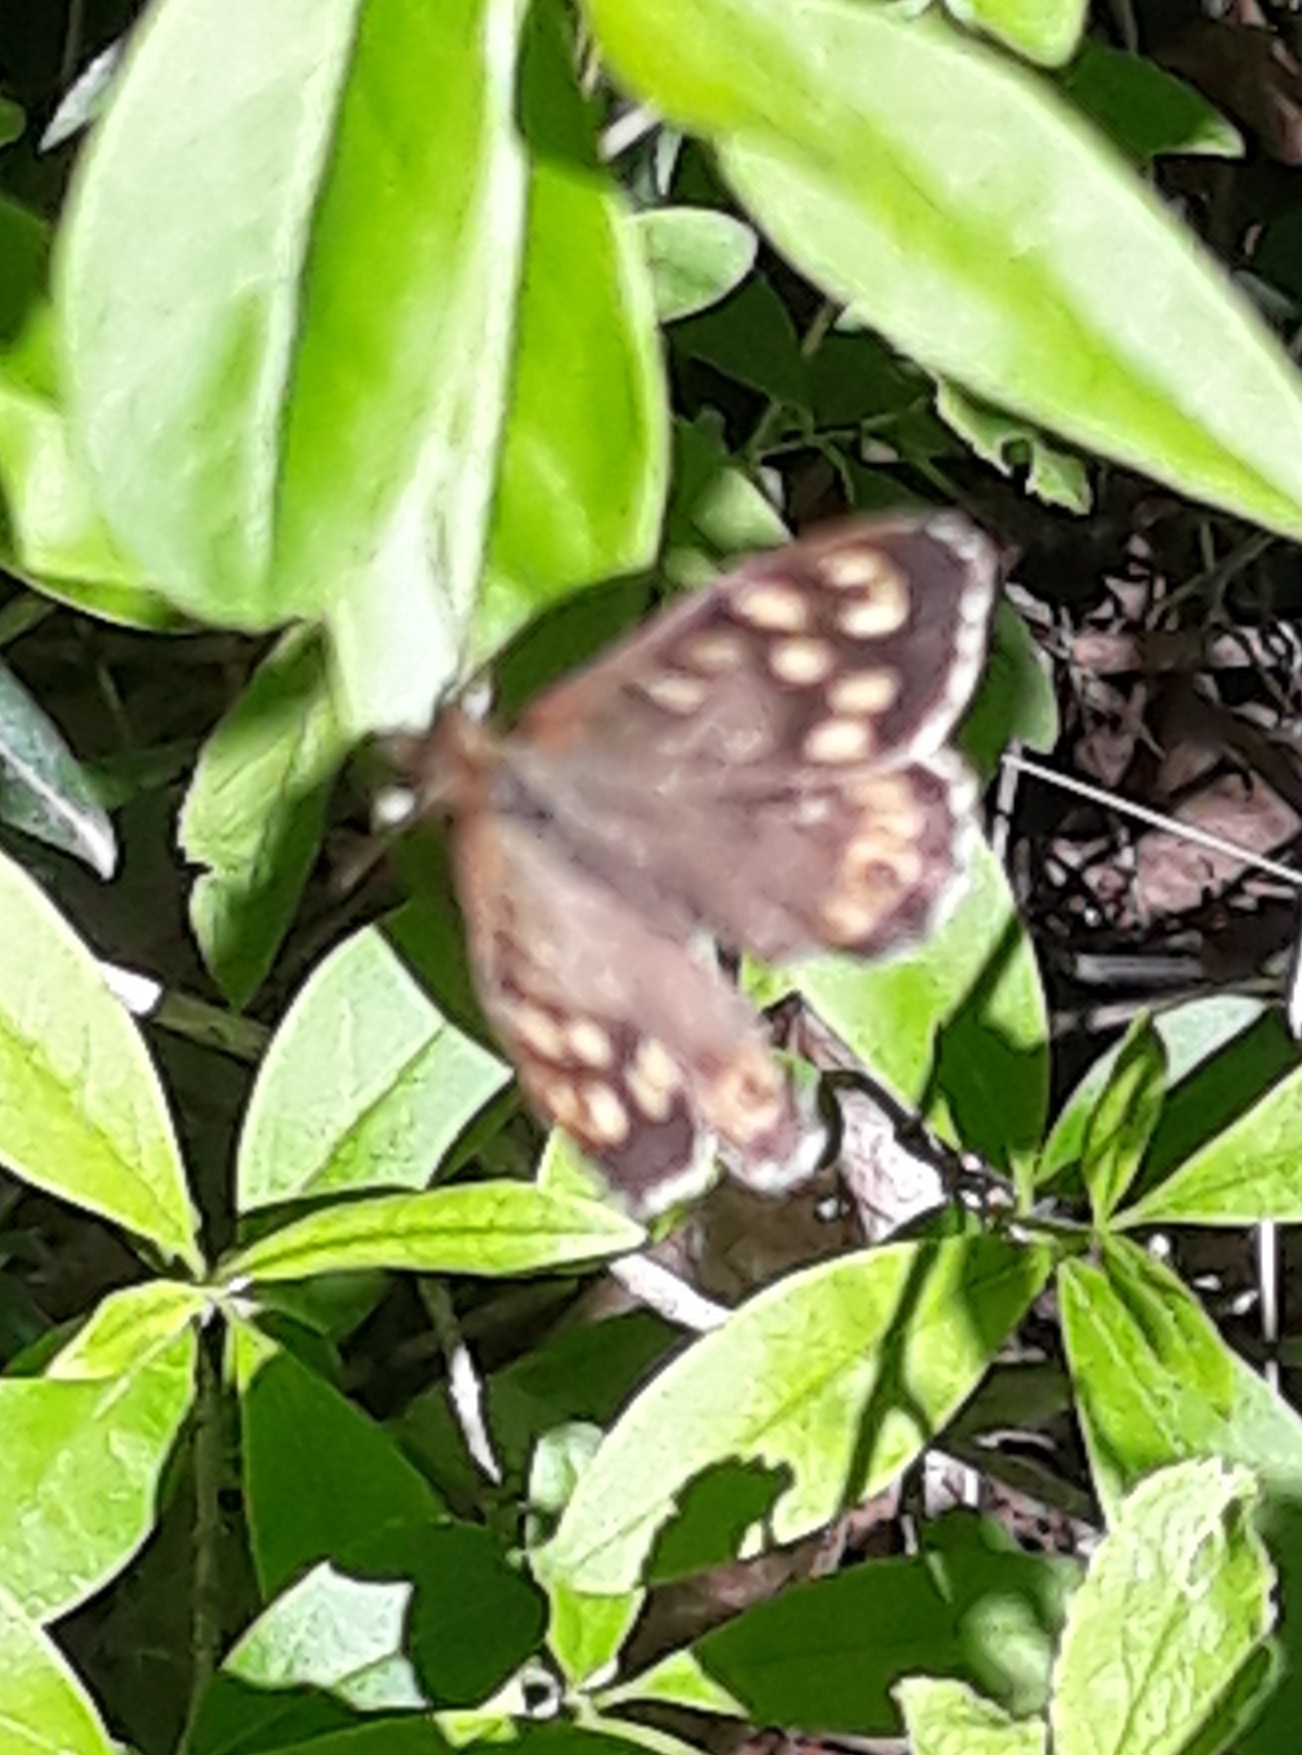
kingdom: Animalia
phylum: Arthropoda
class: Insecta
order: Lepidoptera
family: Nymphalidae
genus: Pararge
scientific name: Pararge aegeria
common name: Speckled wood
